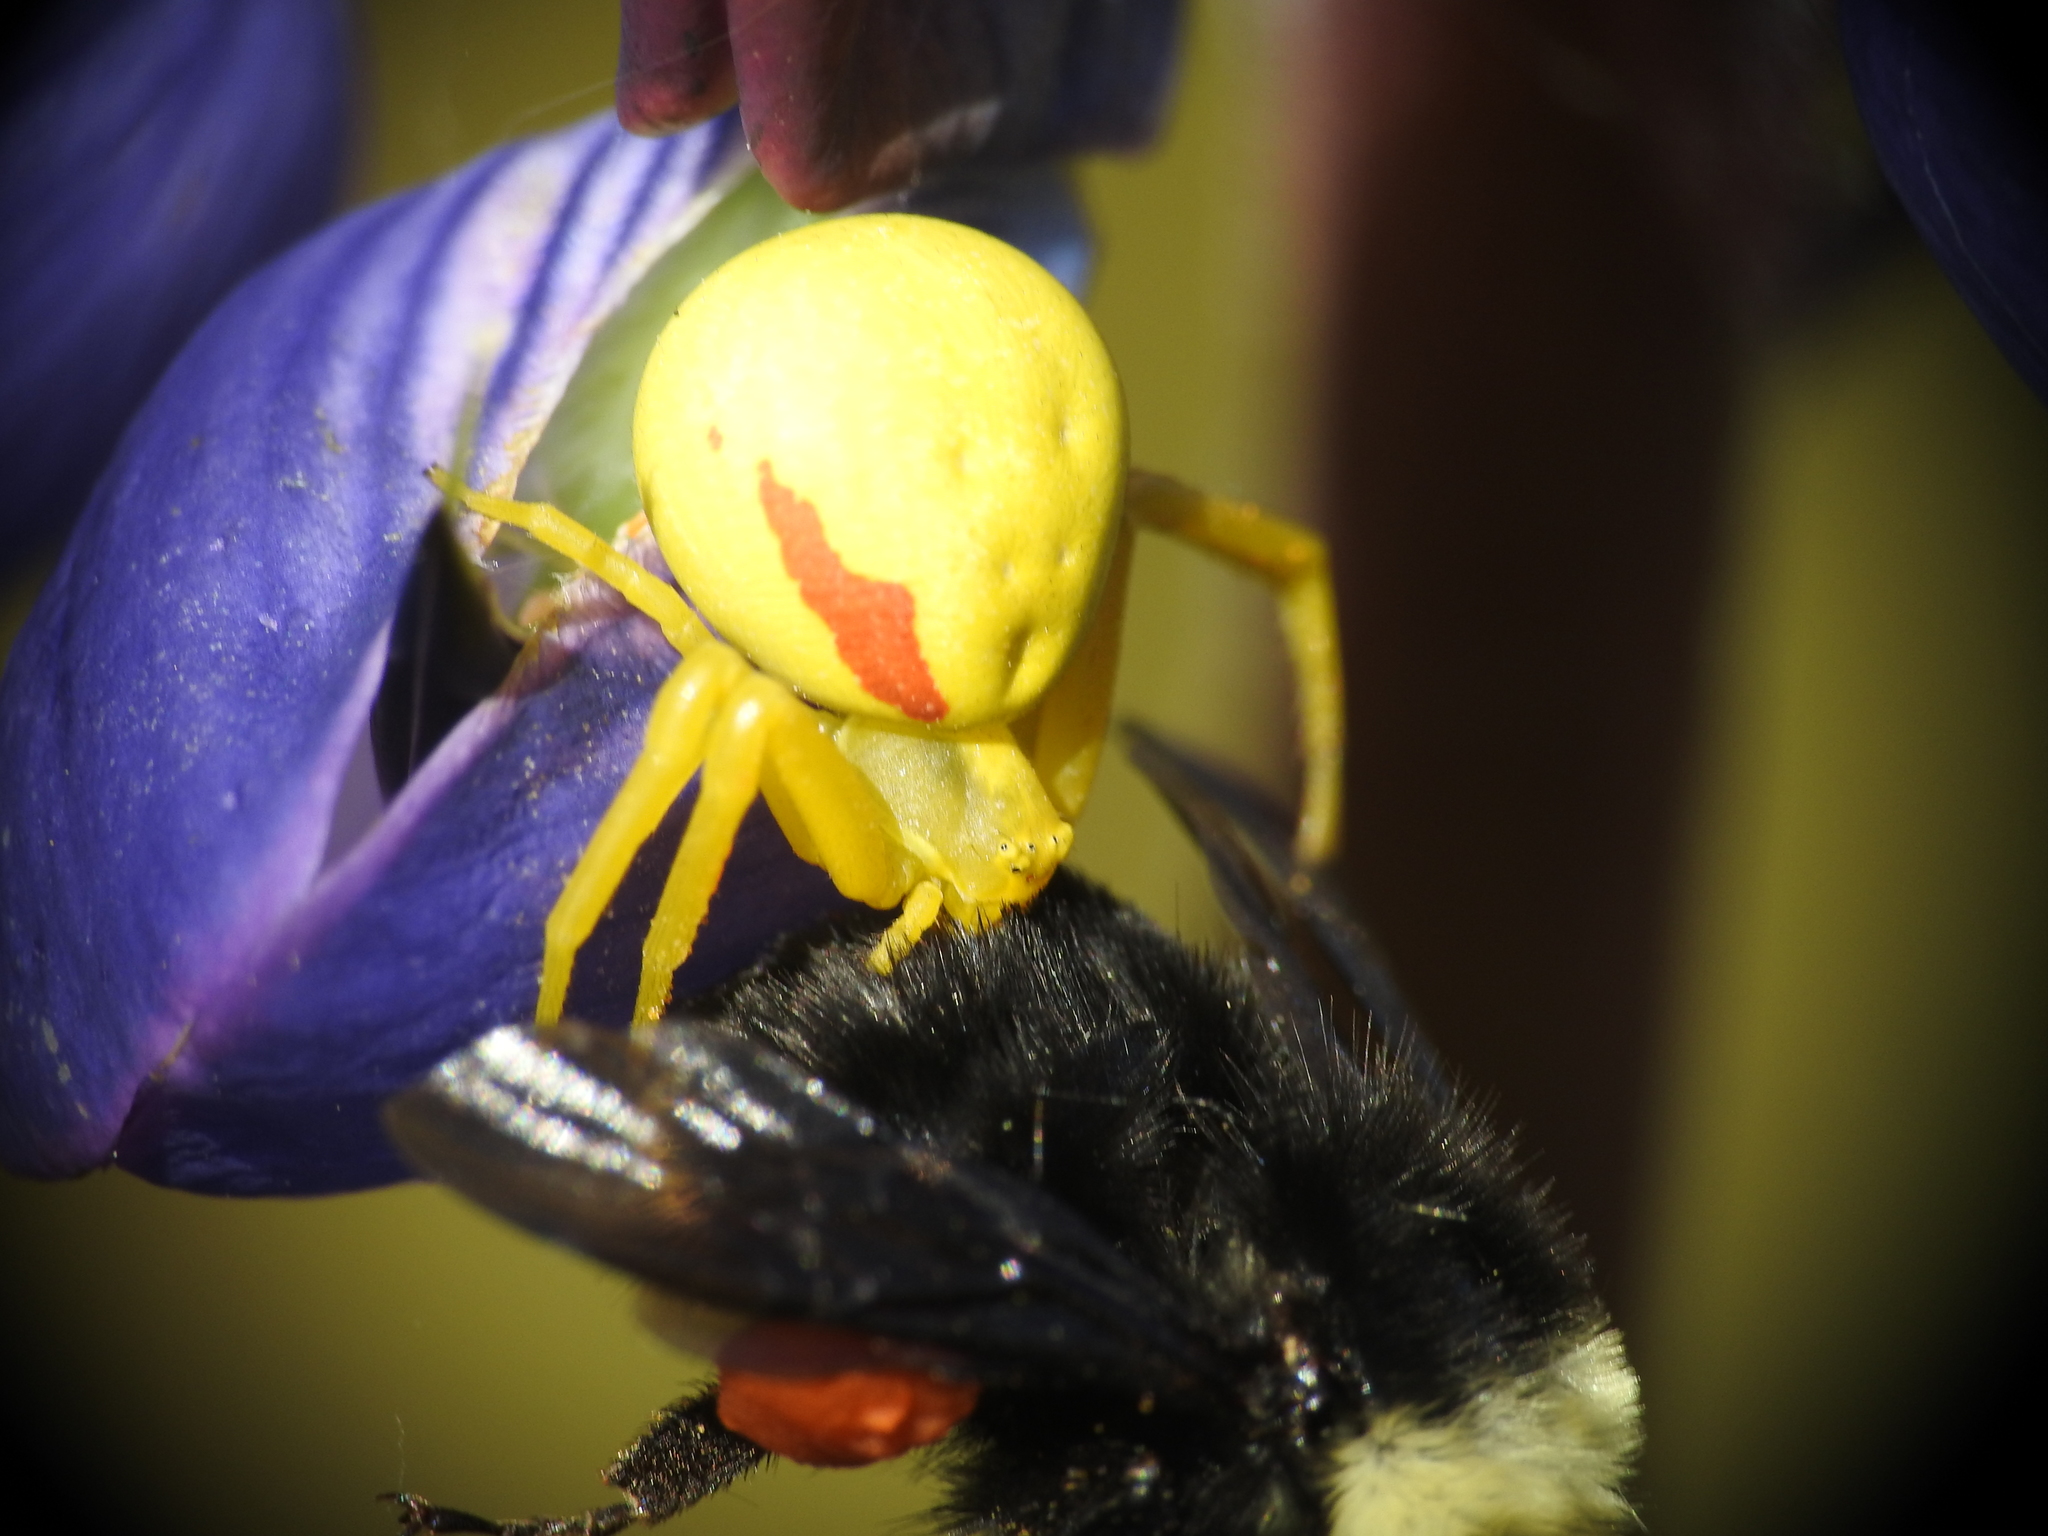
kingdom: Animalia
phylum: Arthropoda
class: Arachnida
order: Araneae
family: Thomisidae
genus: Misumena
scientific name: Misumena vatia
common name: Goldenrod crab spider
